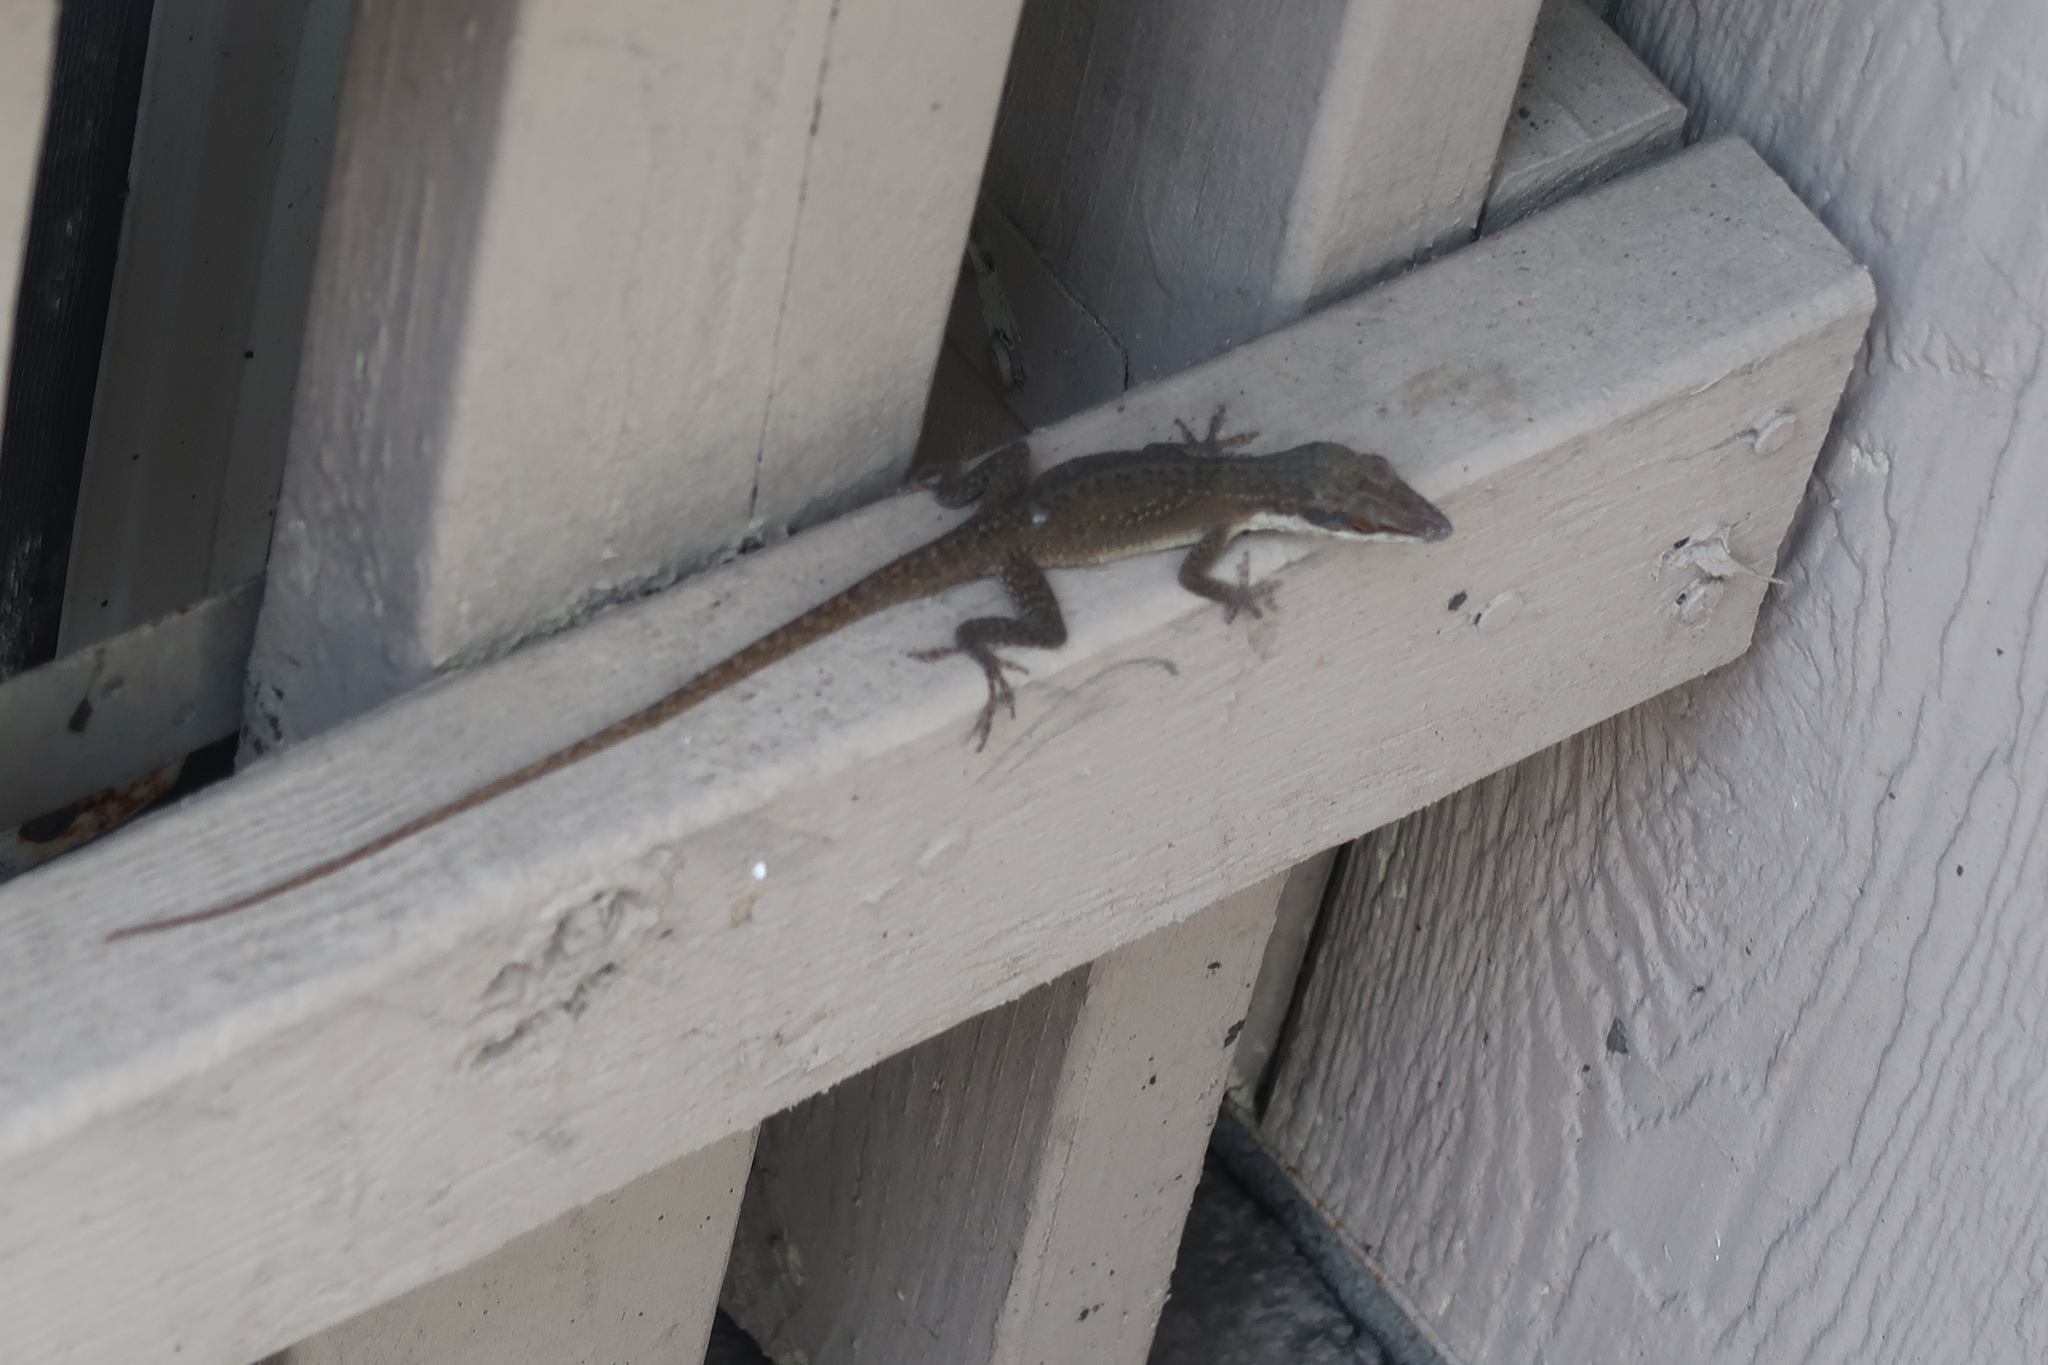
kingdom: Animalia
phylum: Chordata
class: Squamata
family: Dactyloidae
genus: Anolis
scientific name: Anolis carolinensis
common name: Green anole
